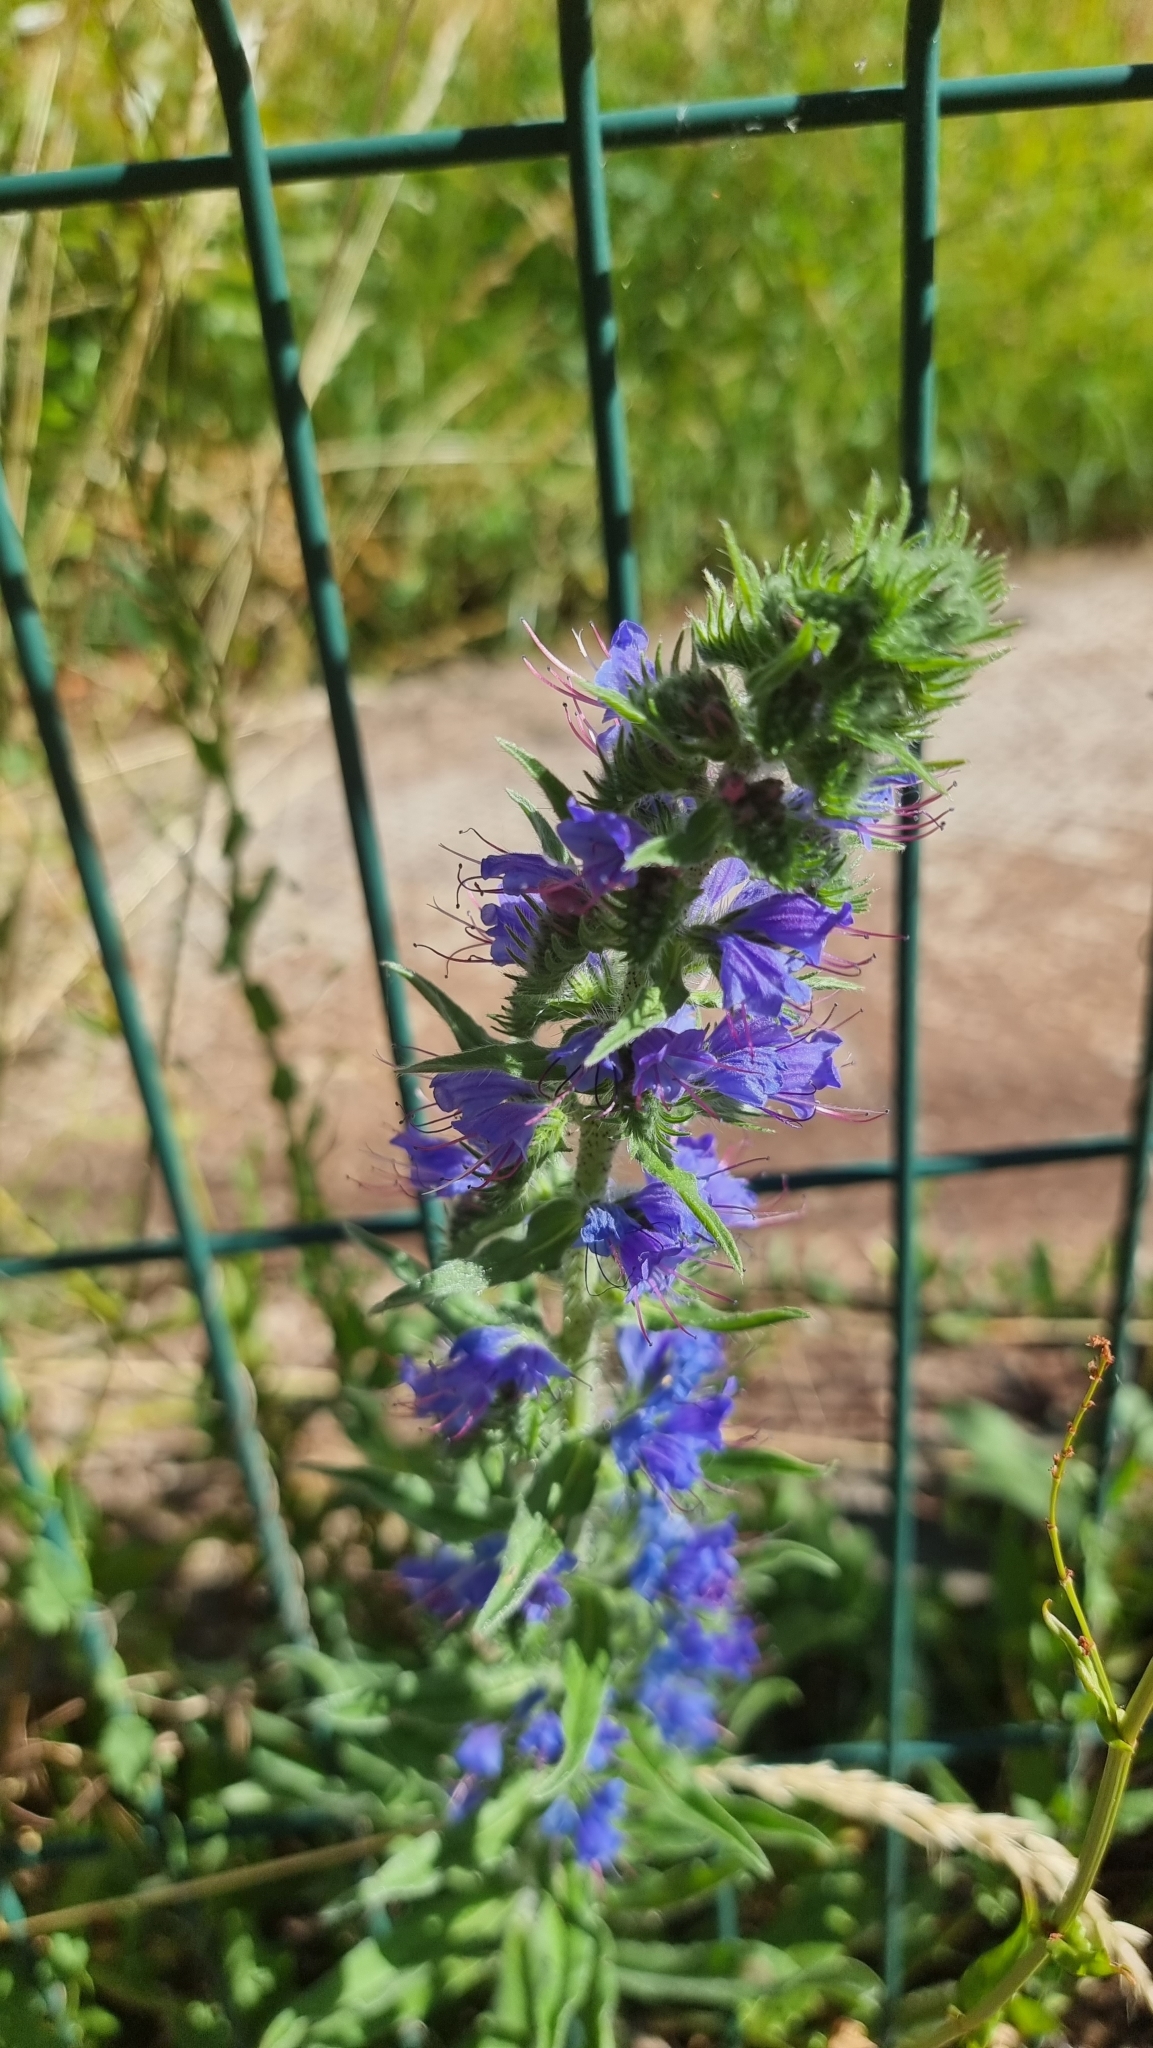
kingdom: Plantae
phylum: Tracheophyta
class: Magnoliopsida
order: Boraginales
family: Boraginaceae
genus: Echium
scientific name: Echium vulgare
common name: Common viper's bugloss
